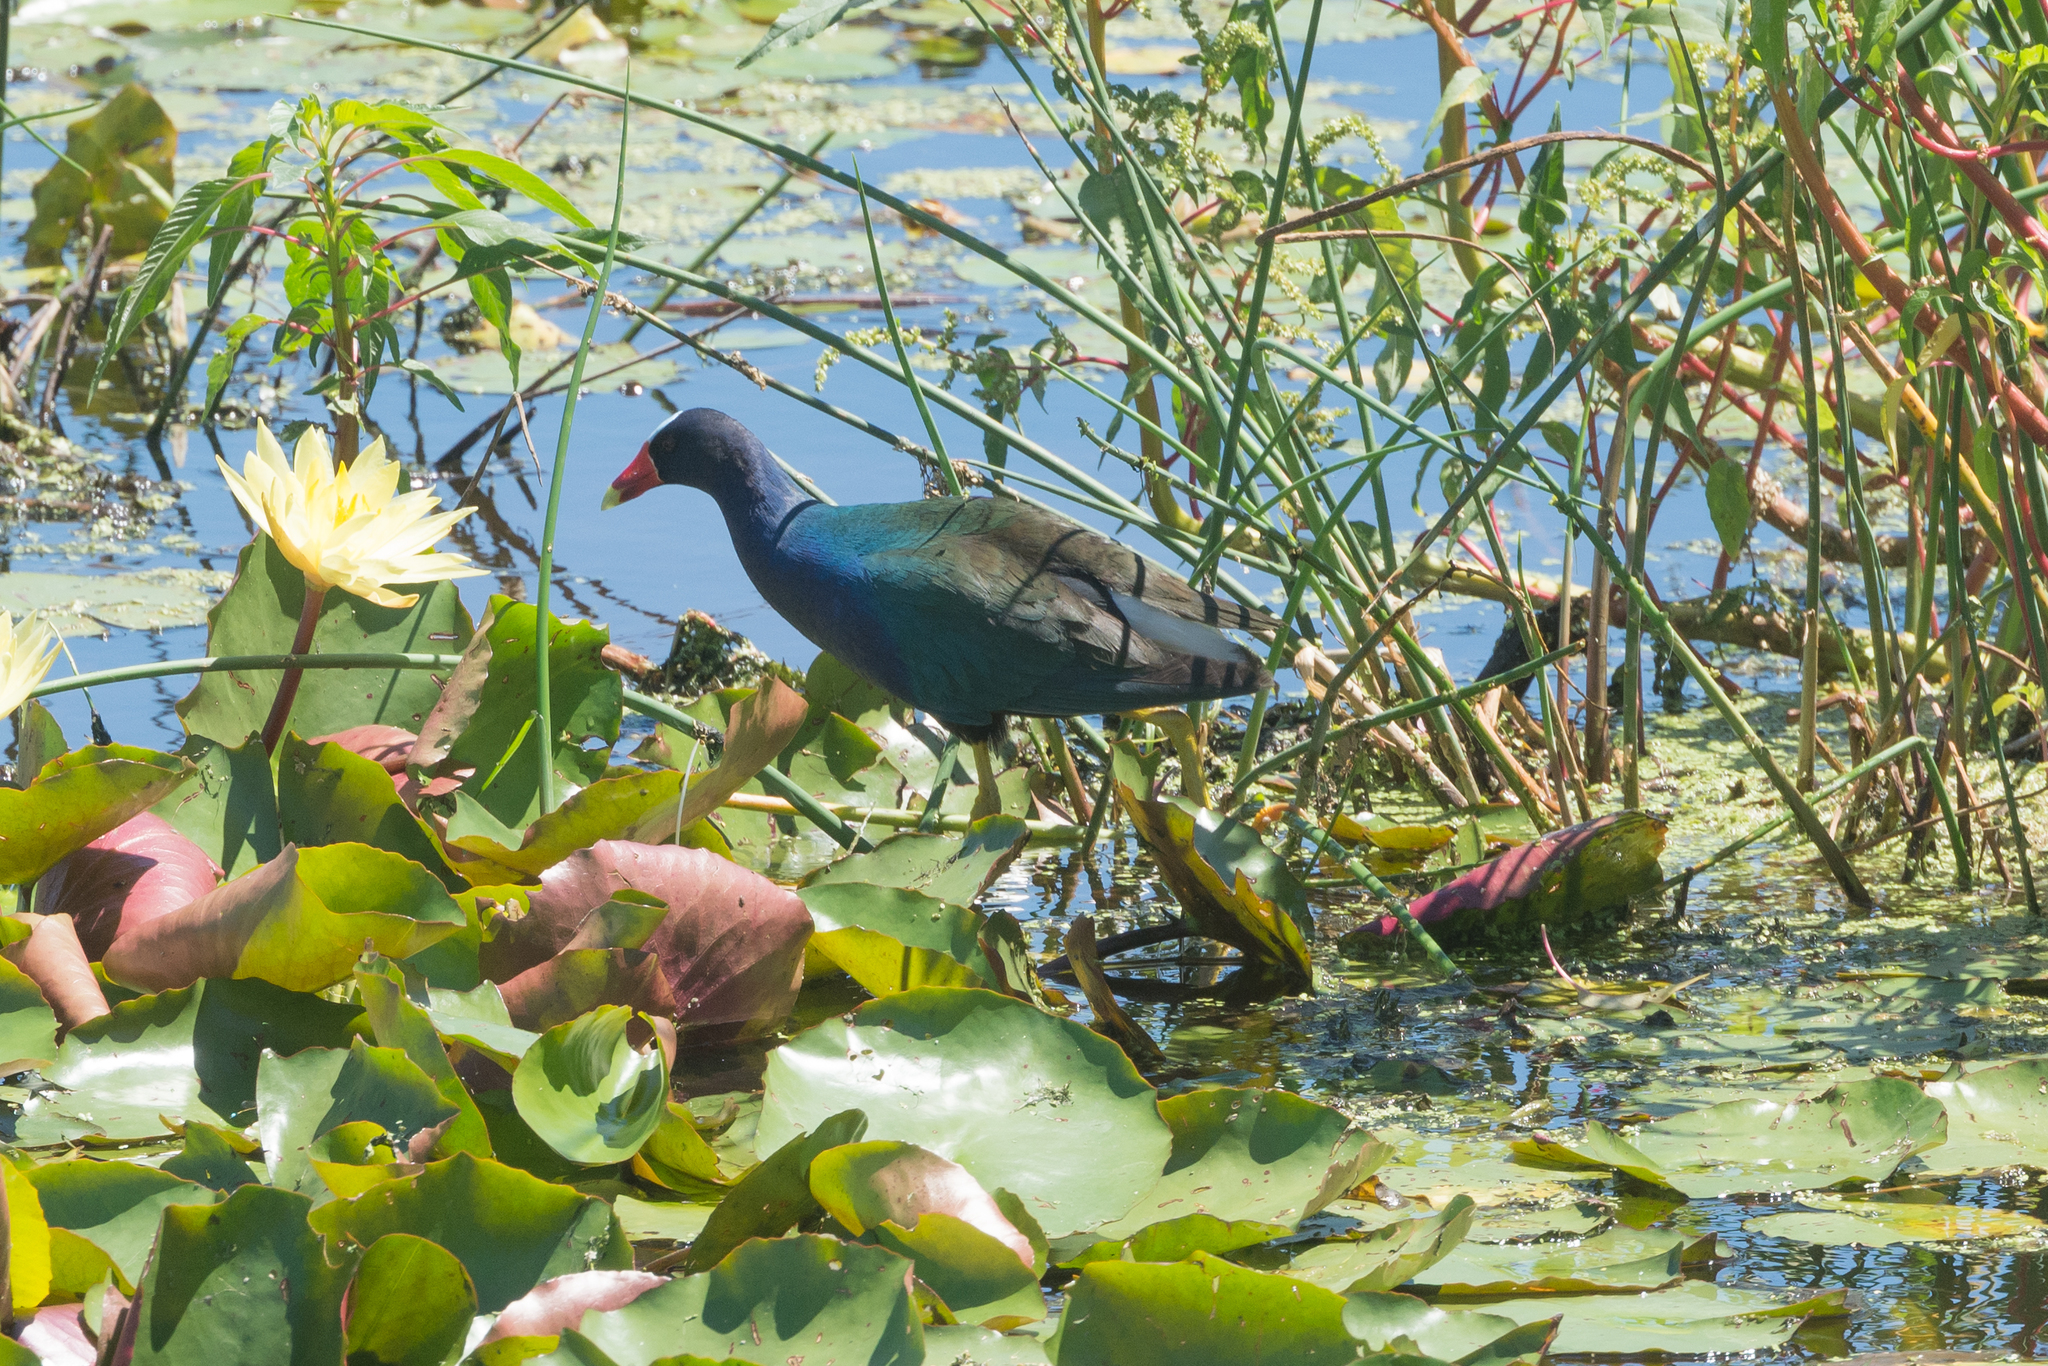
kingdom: Animalia
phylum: Chordata
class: Aves
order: Gruiformes
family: Rallidae
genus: Porphyrio
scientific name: Porphyrio martinica
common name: Purple gallinule
